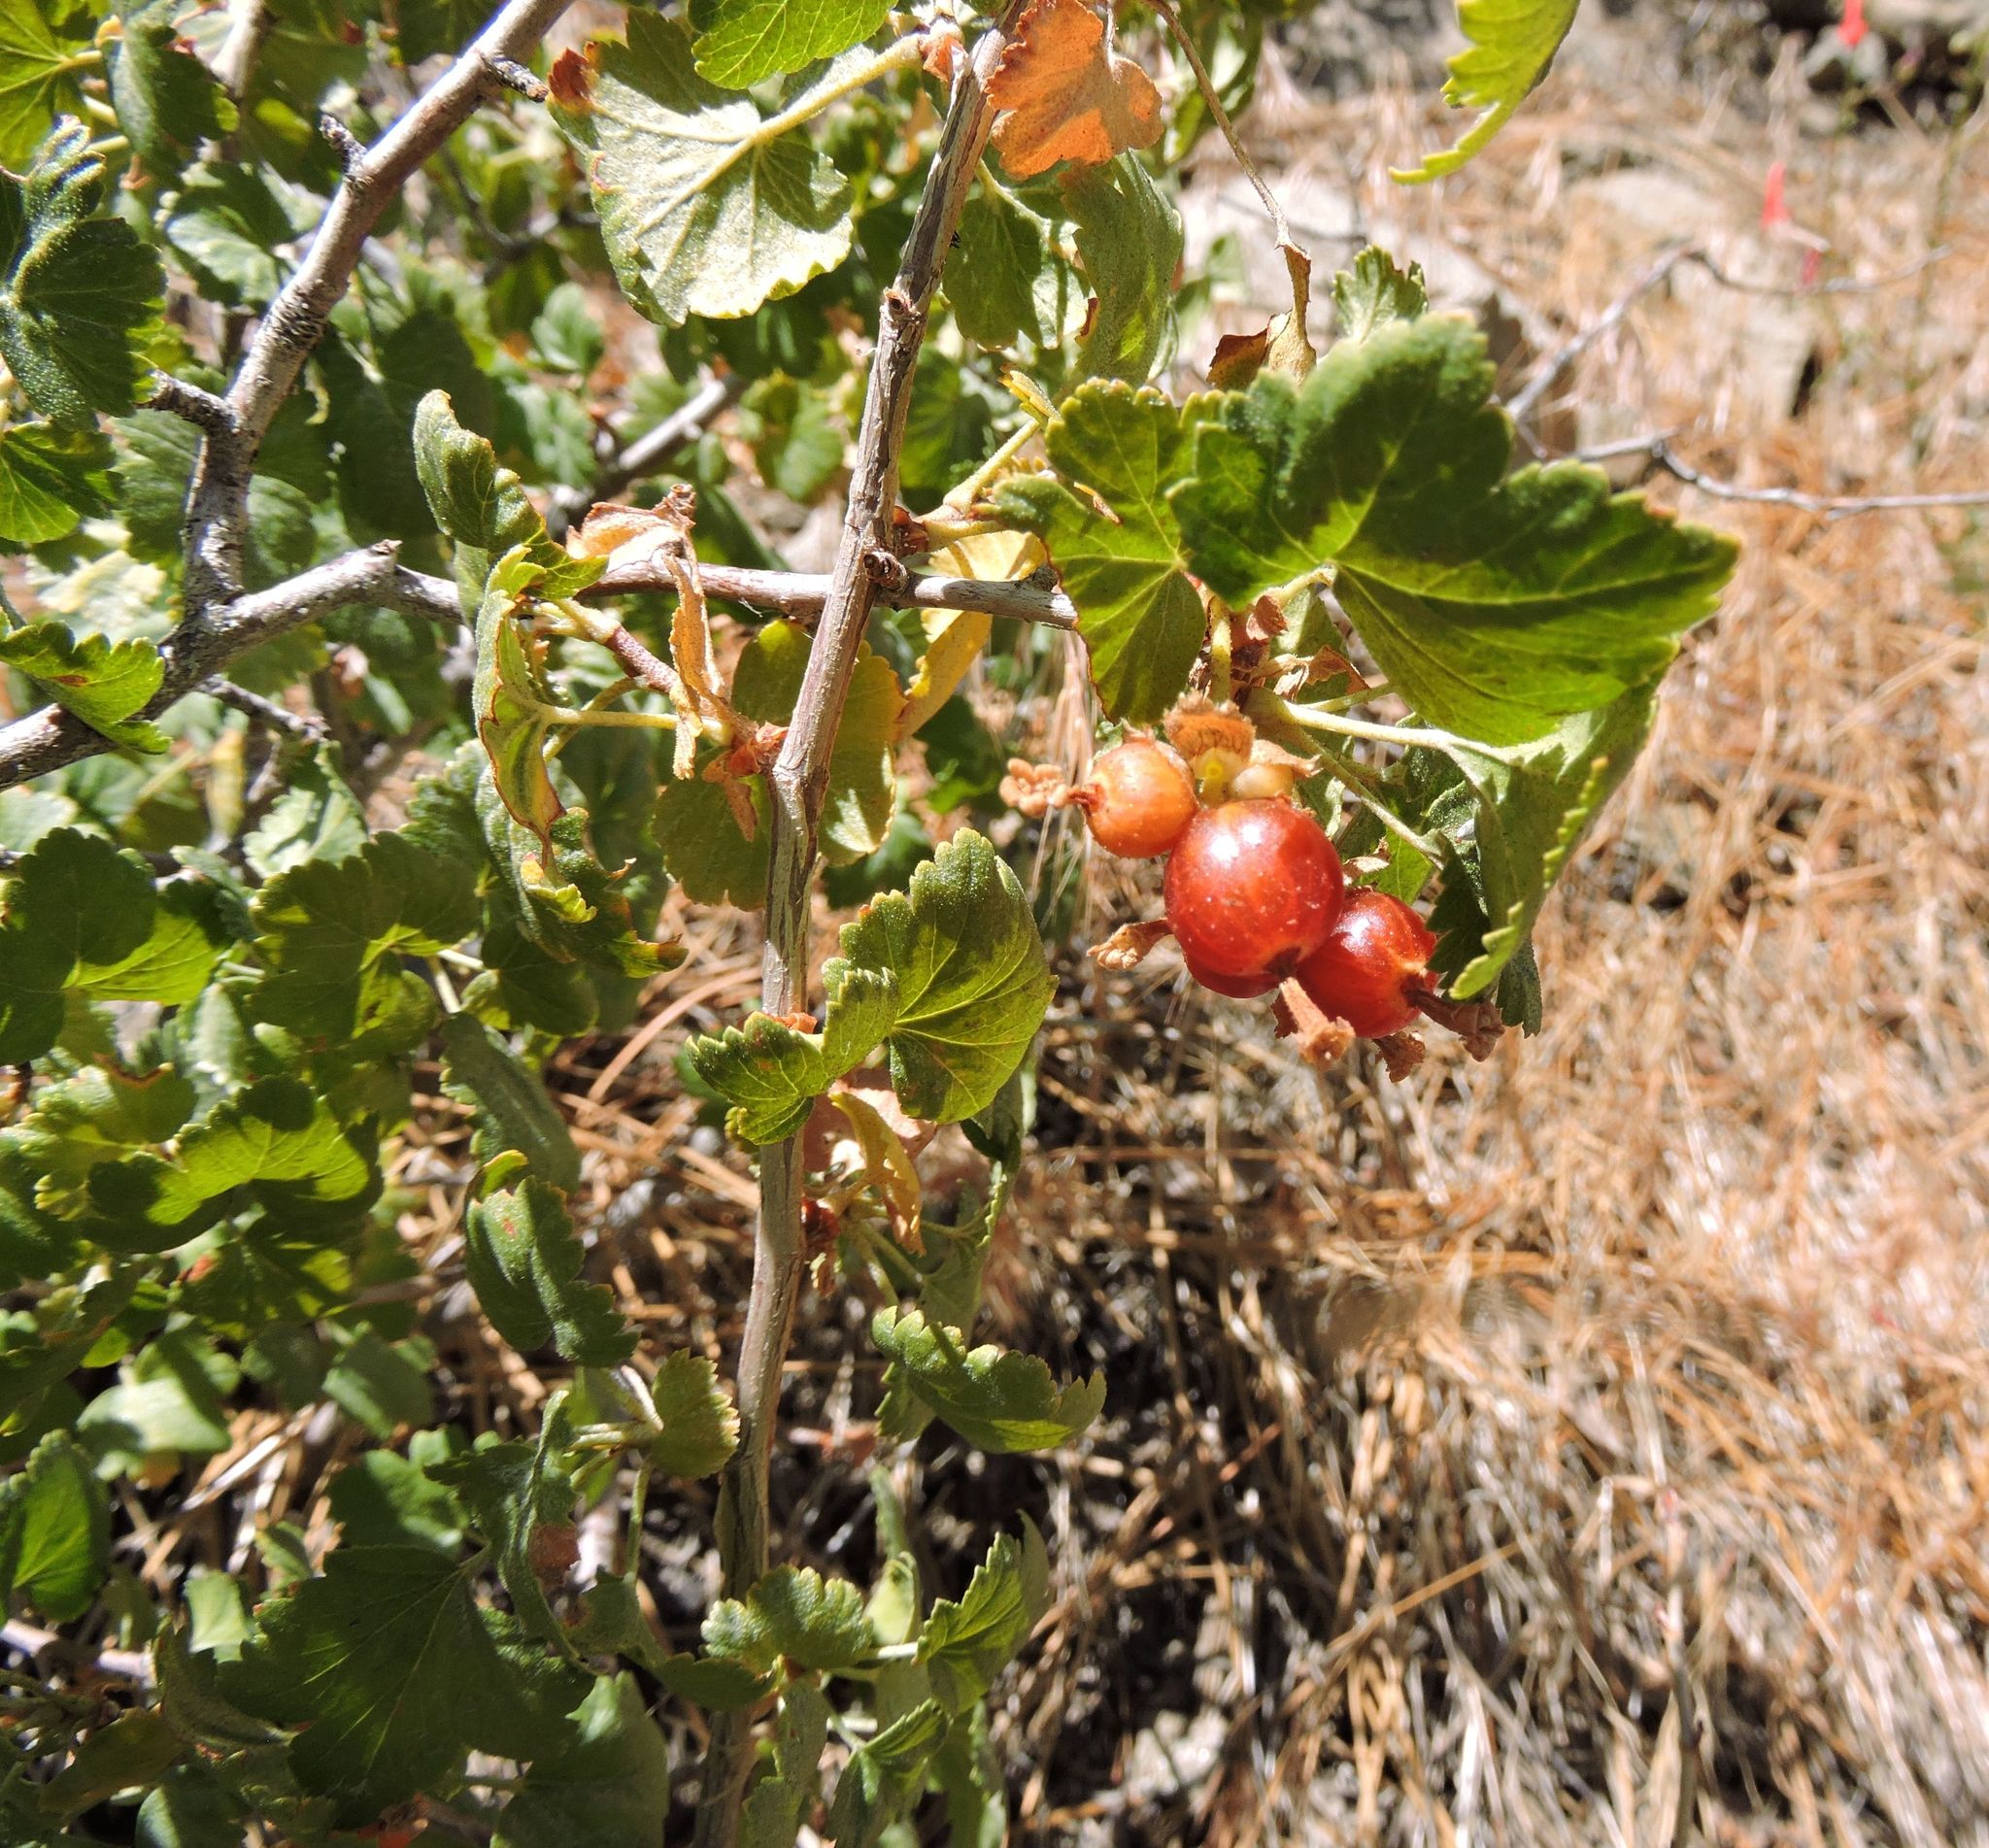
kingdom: Plantae
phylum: Tracheophyta
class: Magnoliopsida
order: Saxifragales
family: Grossulariaceae
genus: Ribes
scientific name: Ribes cereum
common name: Wax currant
